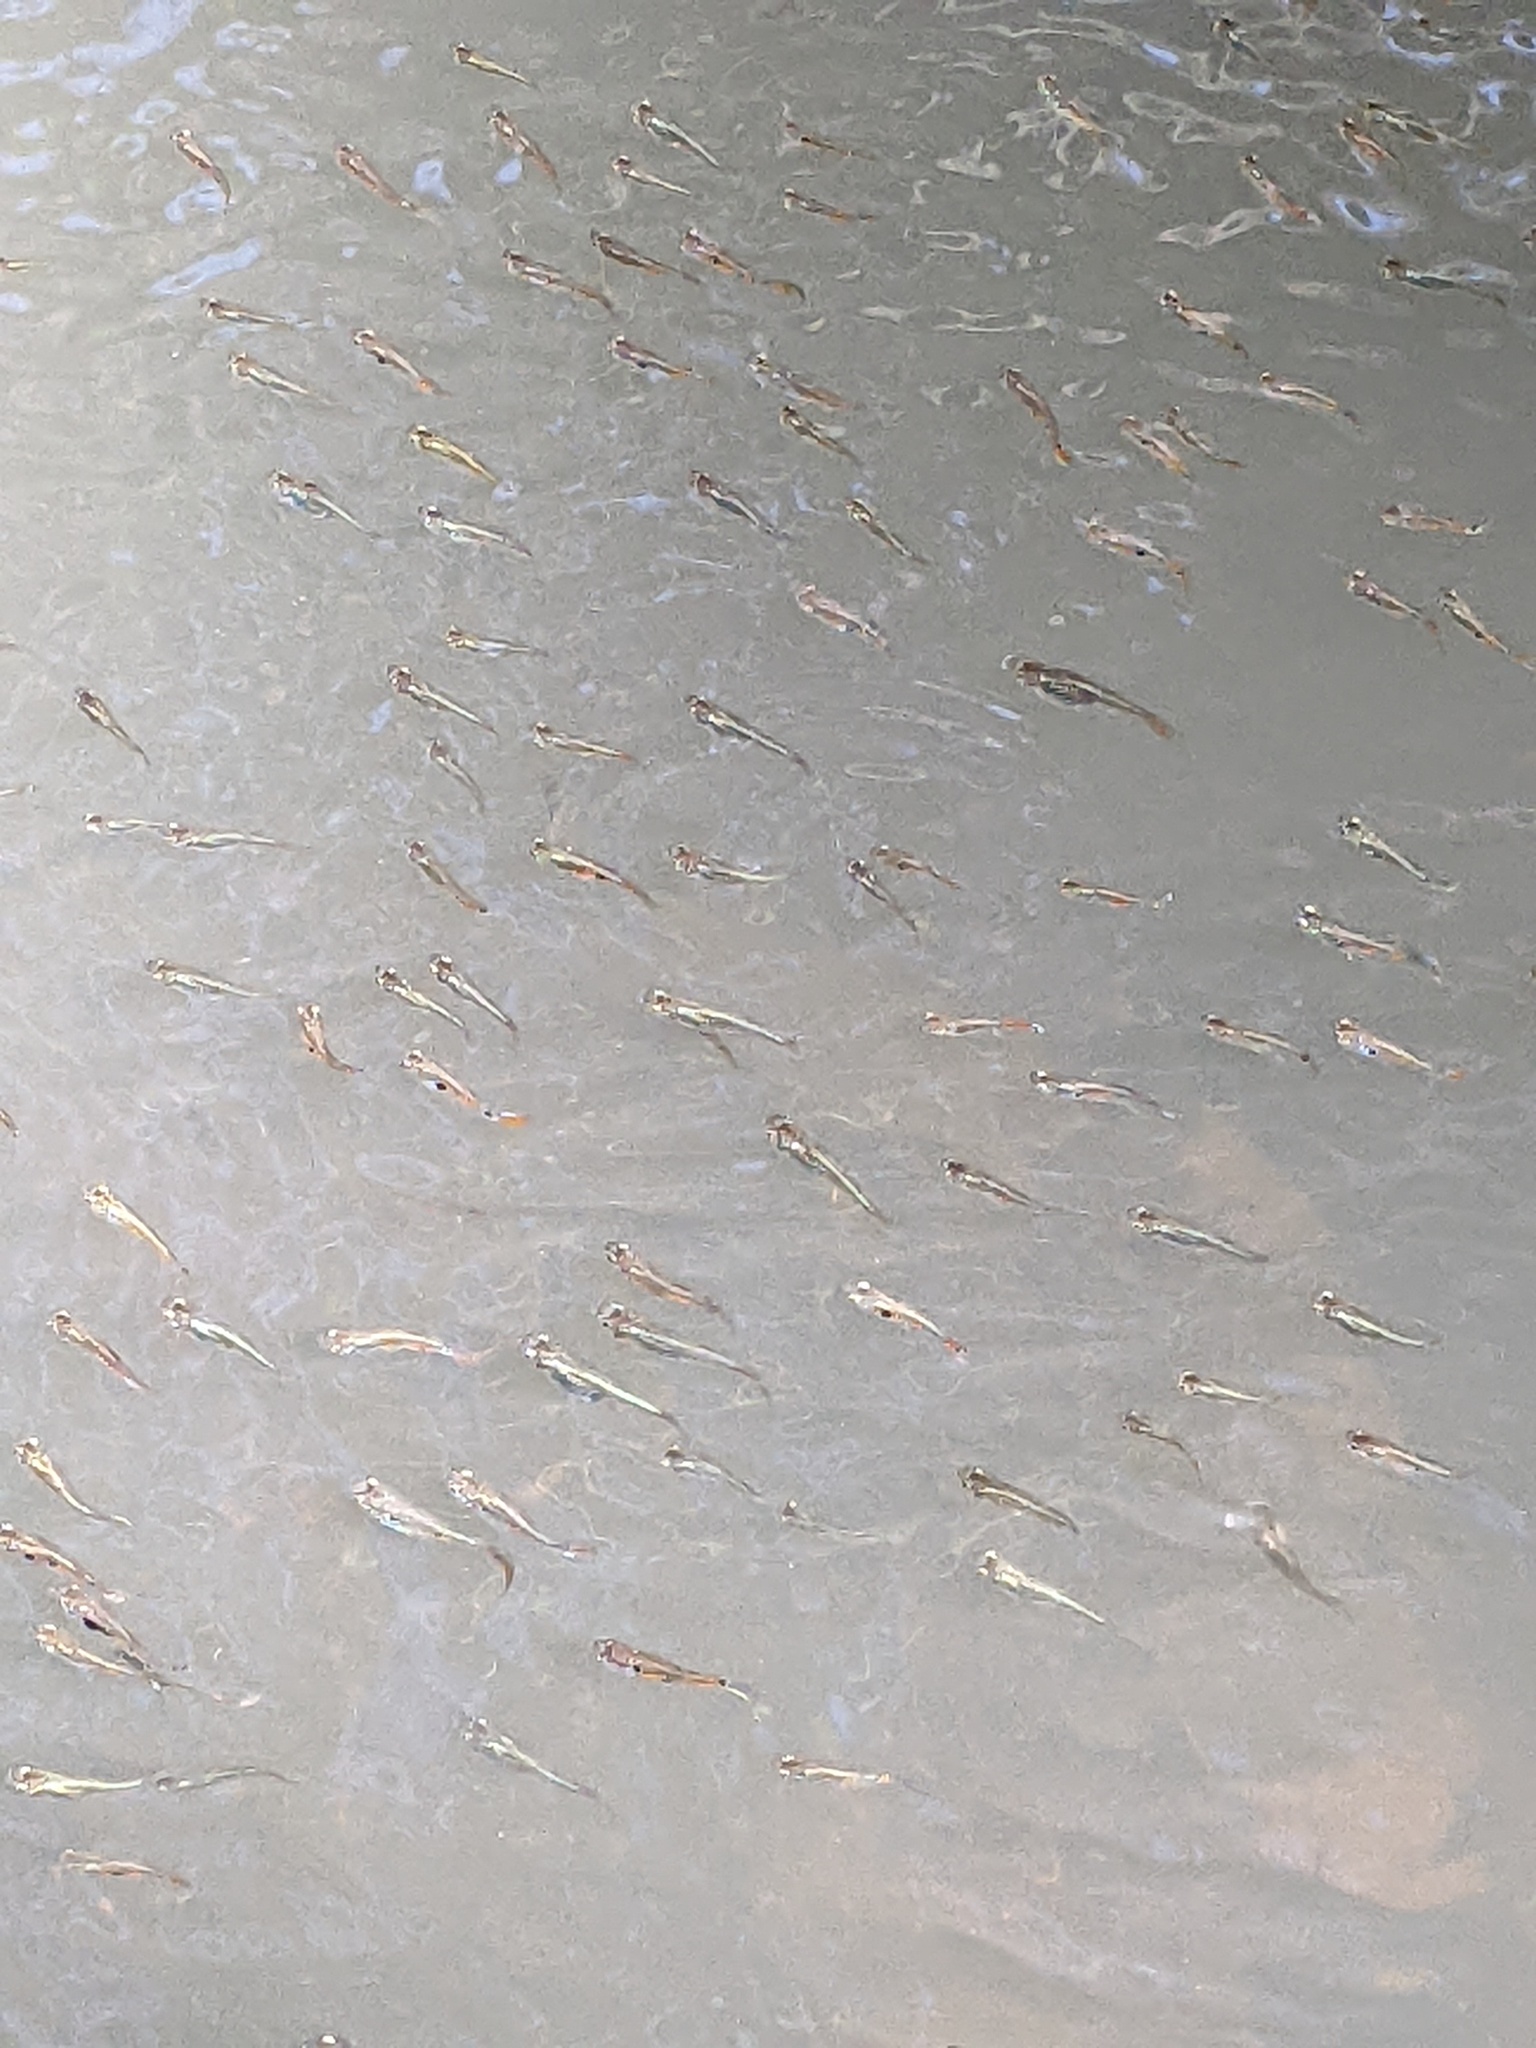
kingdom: Animalia
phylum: Chordata
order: Cyprinodontiformes
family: Poeciliidae
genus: Gambusia
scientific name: Gambusia hispaniolae
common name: Hispaniolan gambusia
